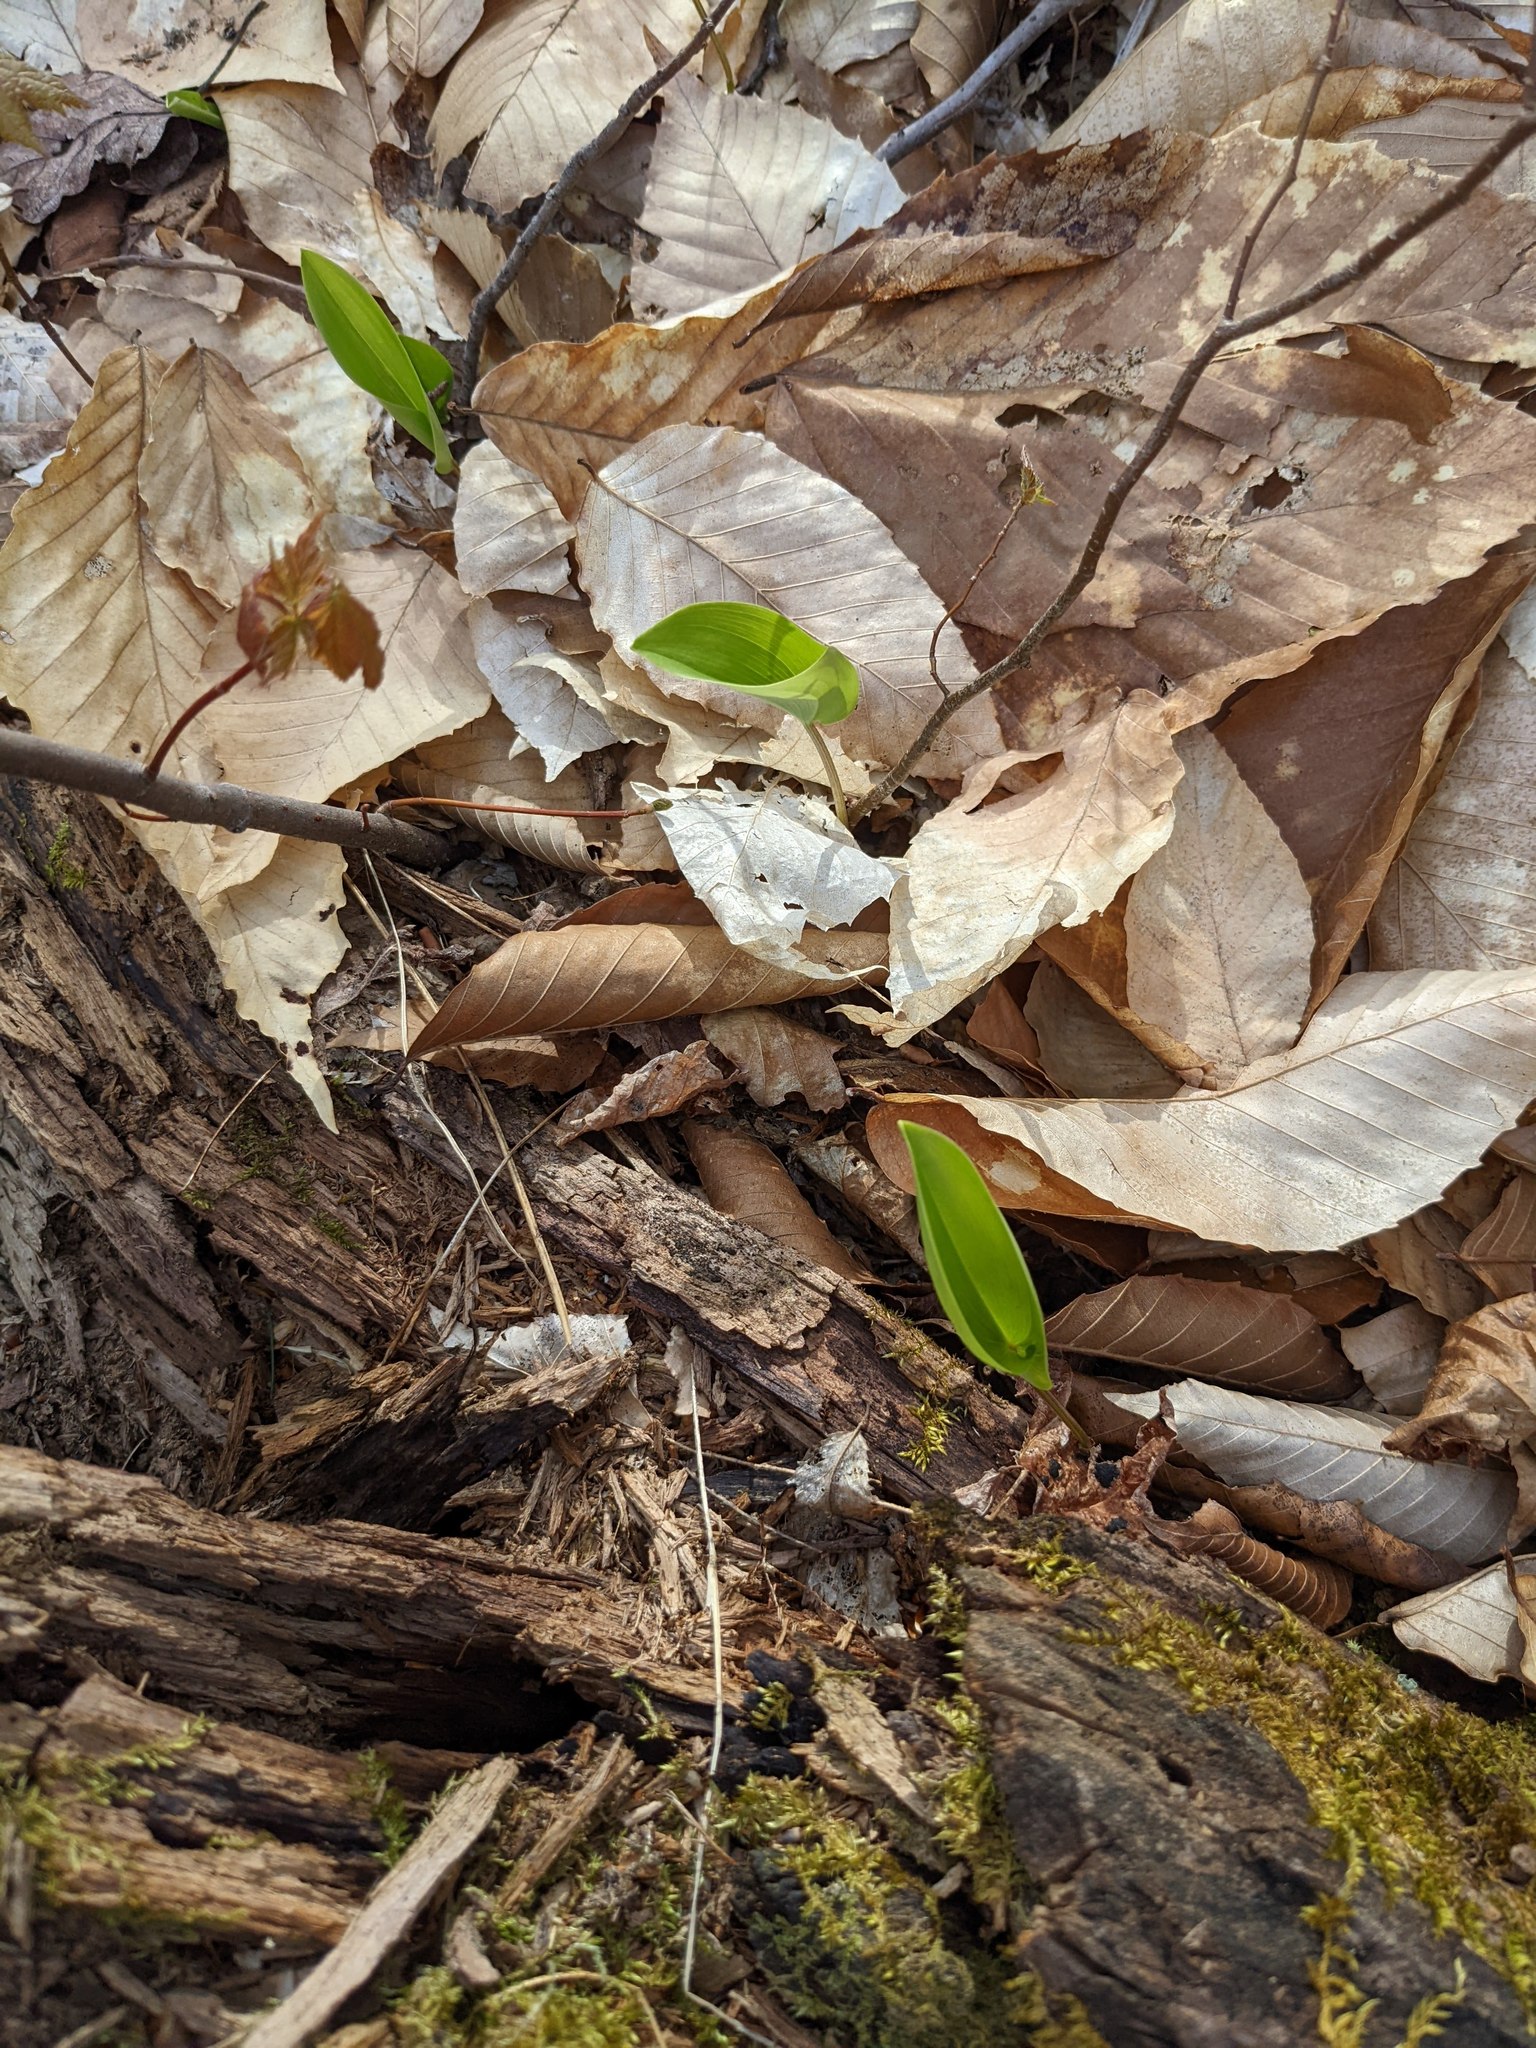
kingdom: Plantae
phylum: Tracheophyta
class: Magnoliopsida
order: Fagales
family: Fagaceae
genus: Fagus
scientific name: Fagus grandifolia
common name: American beech
